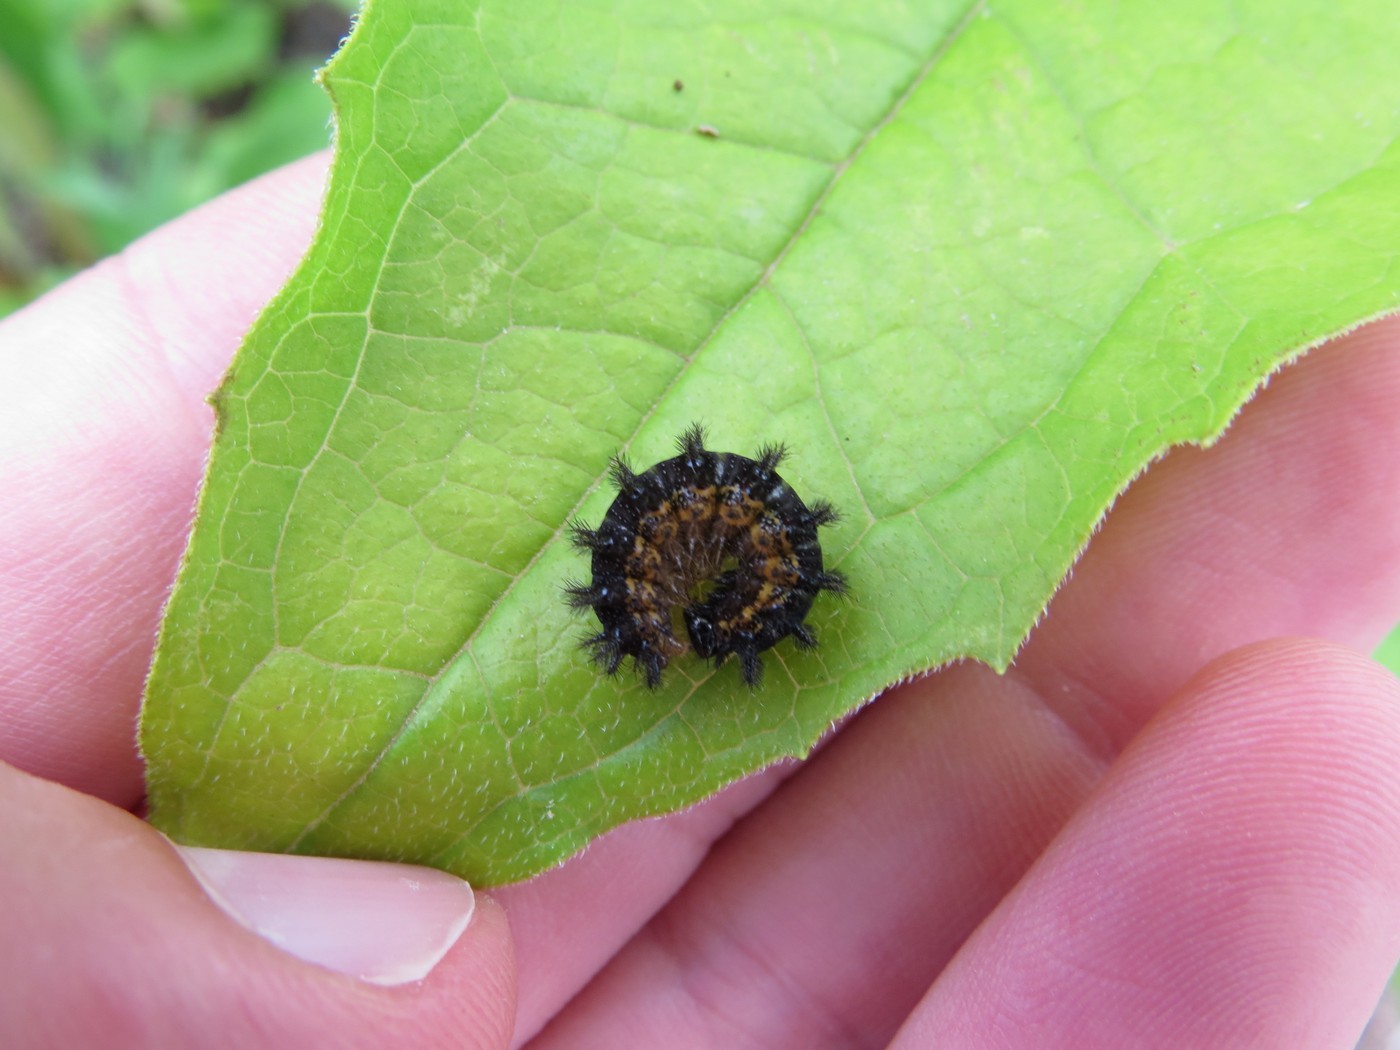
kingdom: Animalia
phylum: Arthropoda
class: Insecta
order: Lepidoptera
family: Nymphalidae
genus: Chlosyne
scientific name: Chlosyne nycteis
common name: Silvery checkerspot
